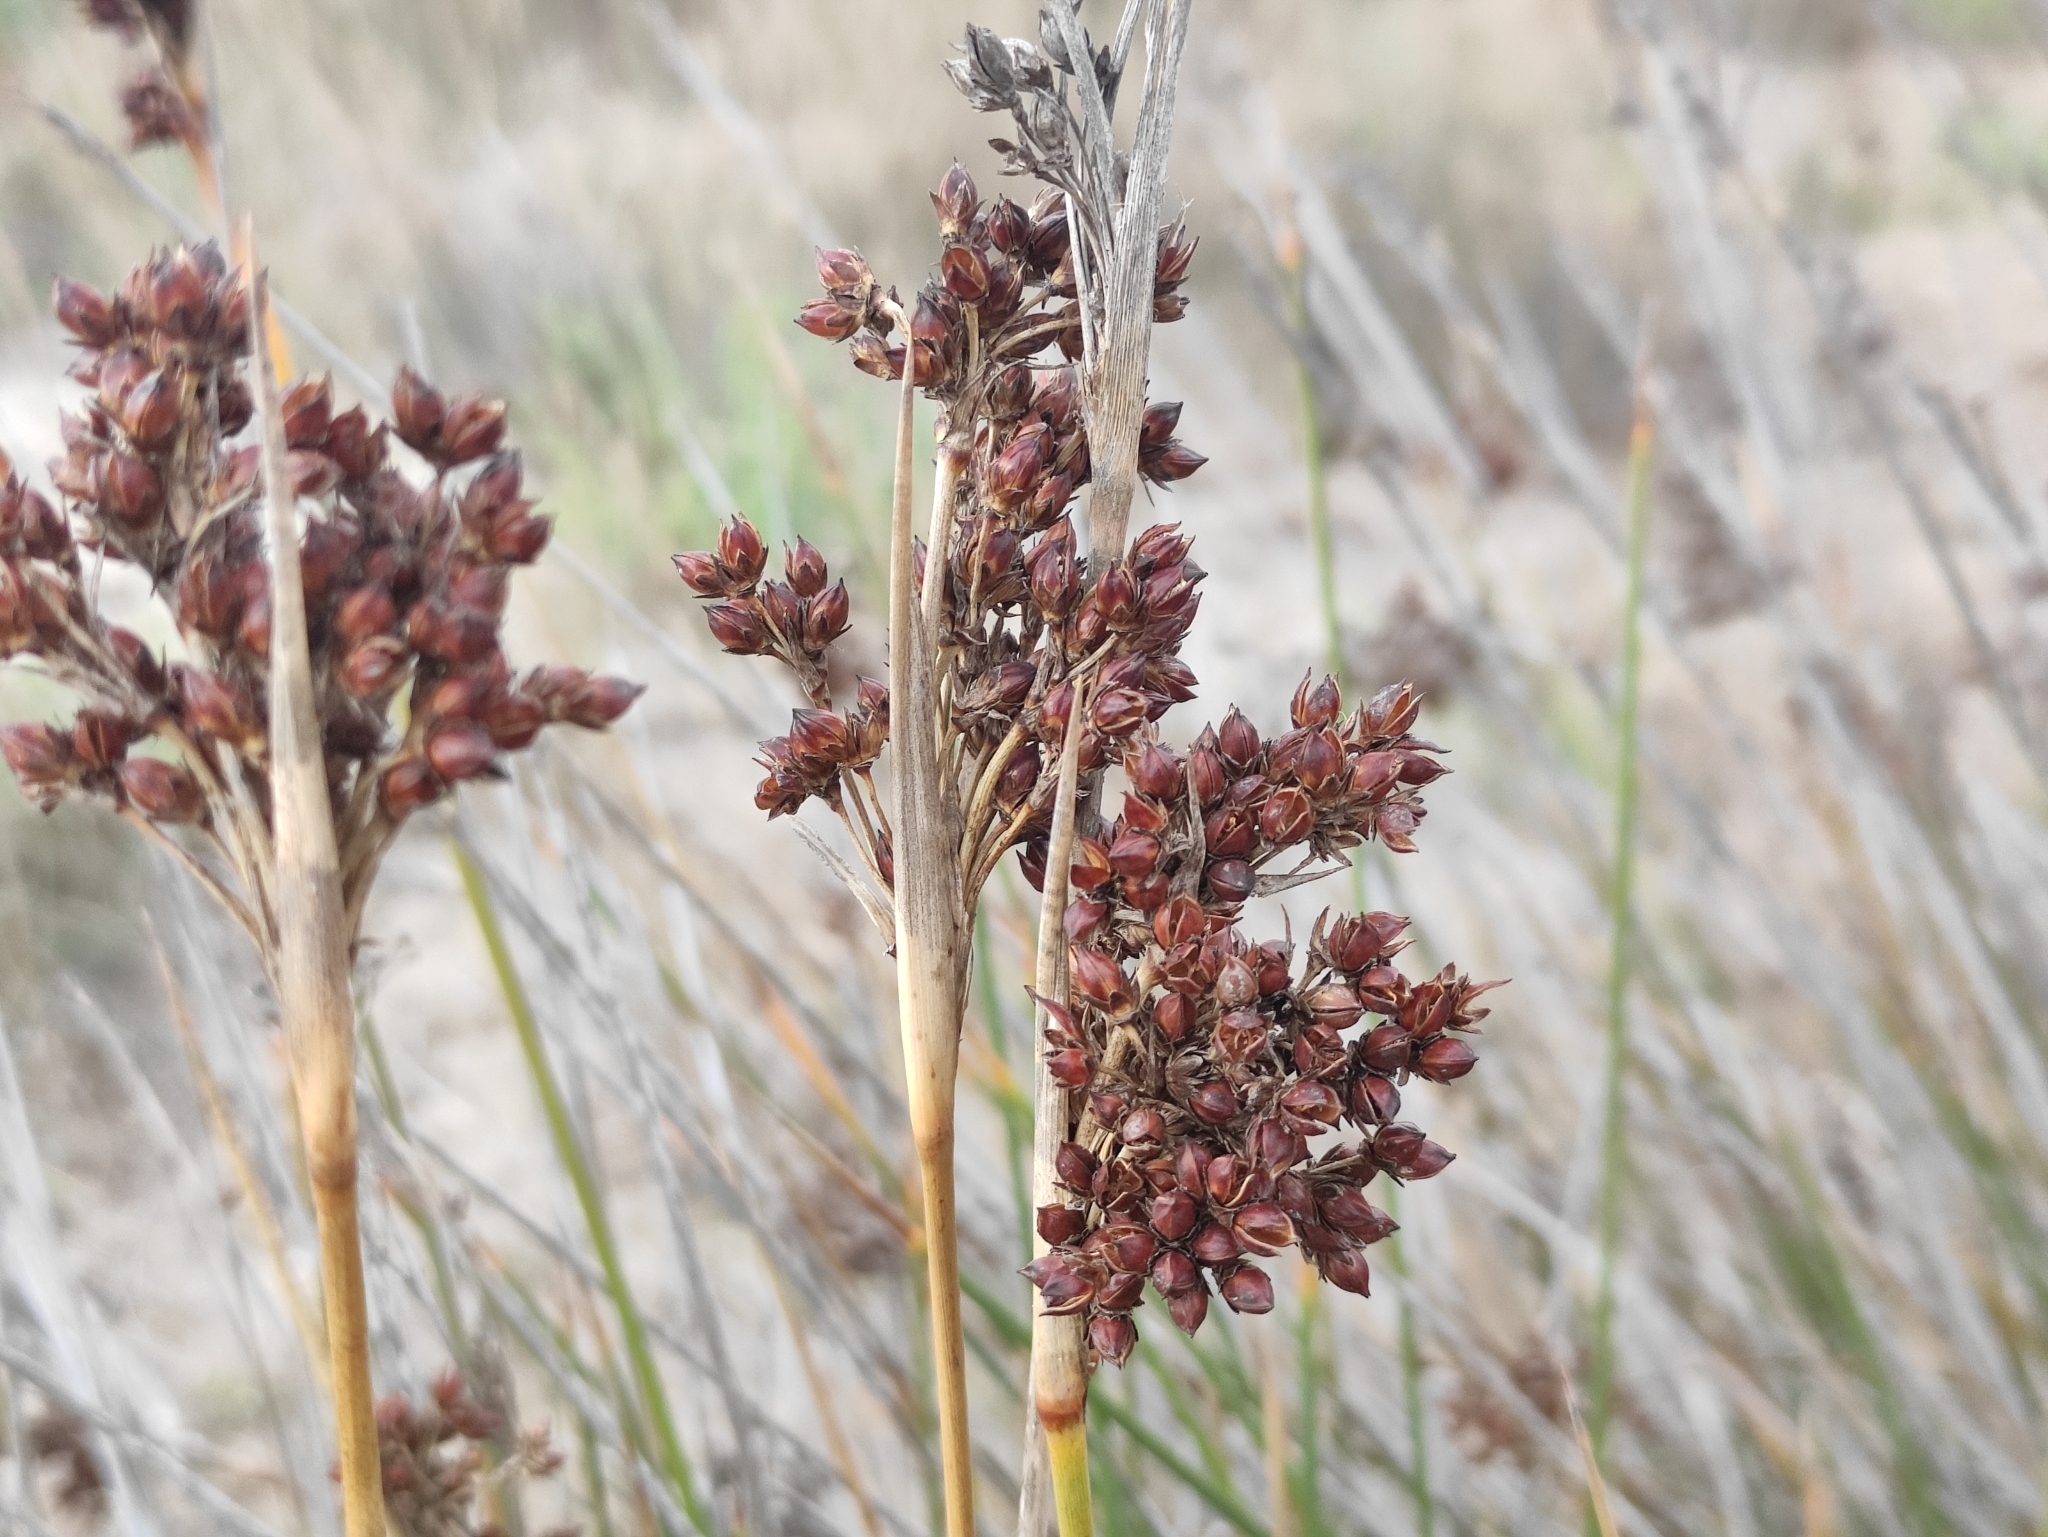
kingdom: Plantae
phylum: Tracheophyta
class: Liliopsida
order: Poales
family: Juncaceae
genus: Juncus
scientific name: Juncus acutus
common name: Sharp rush
